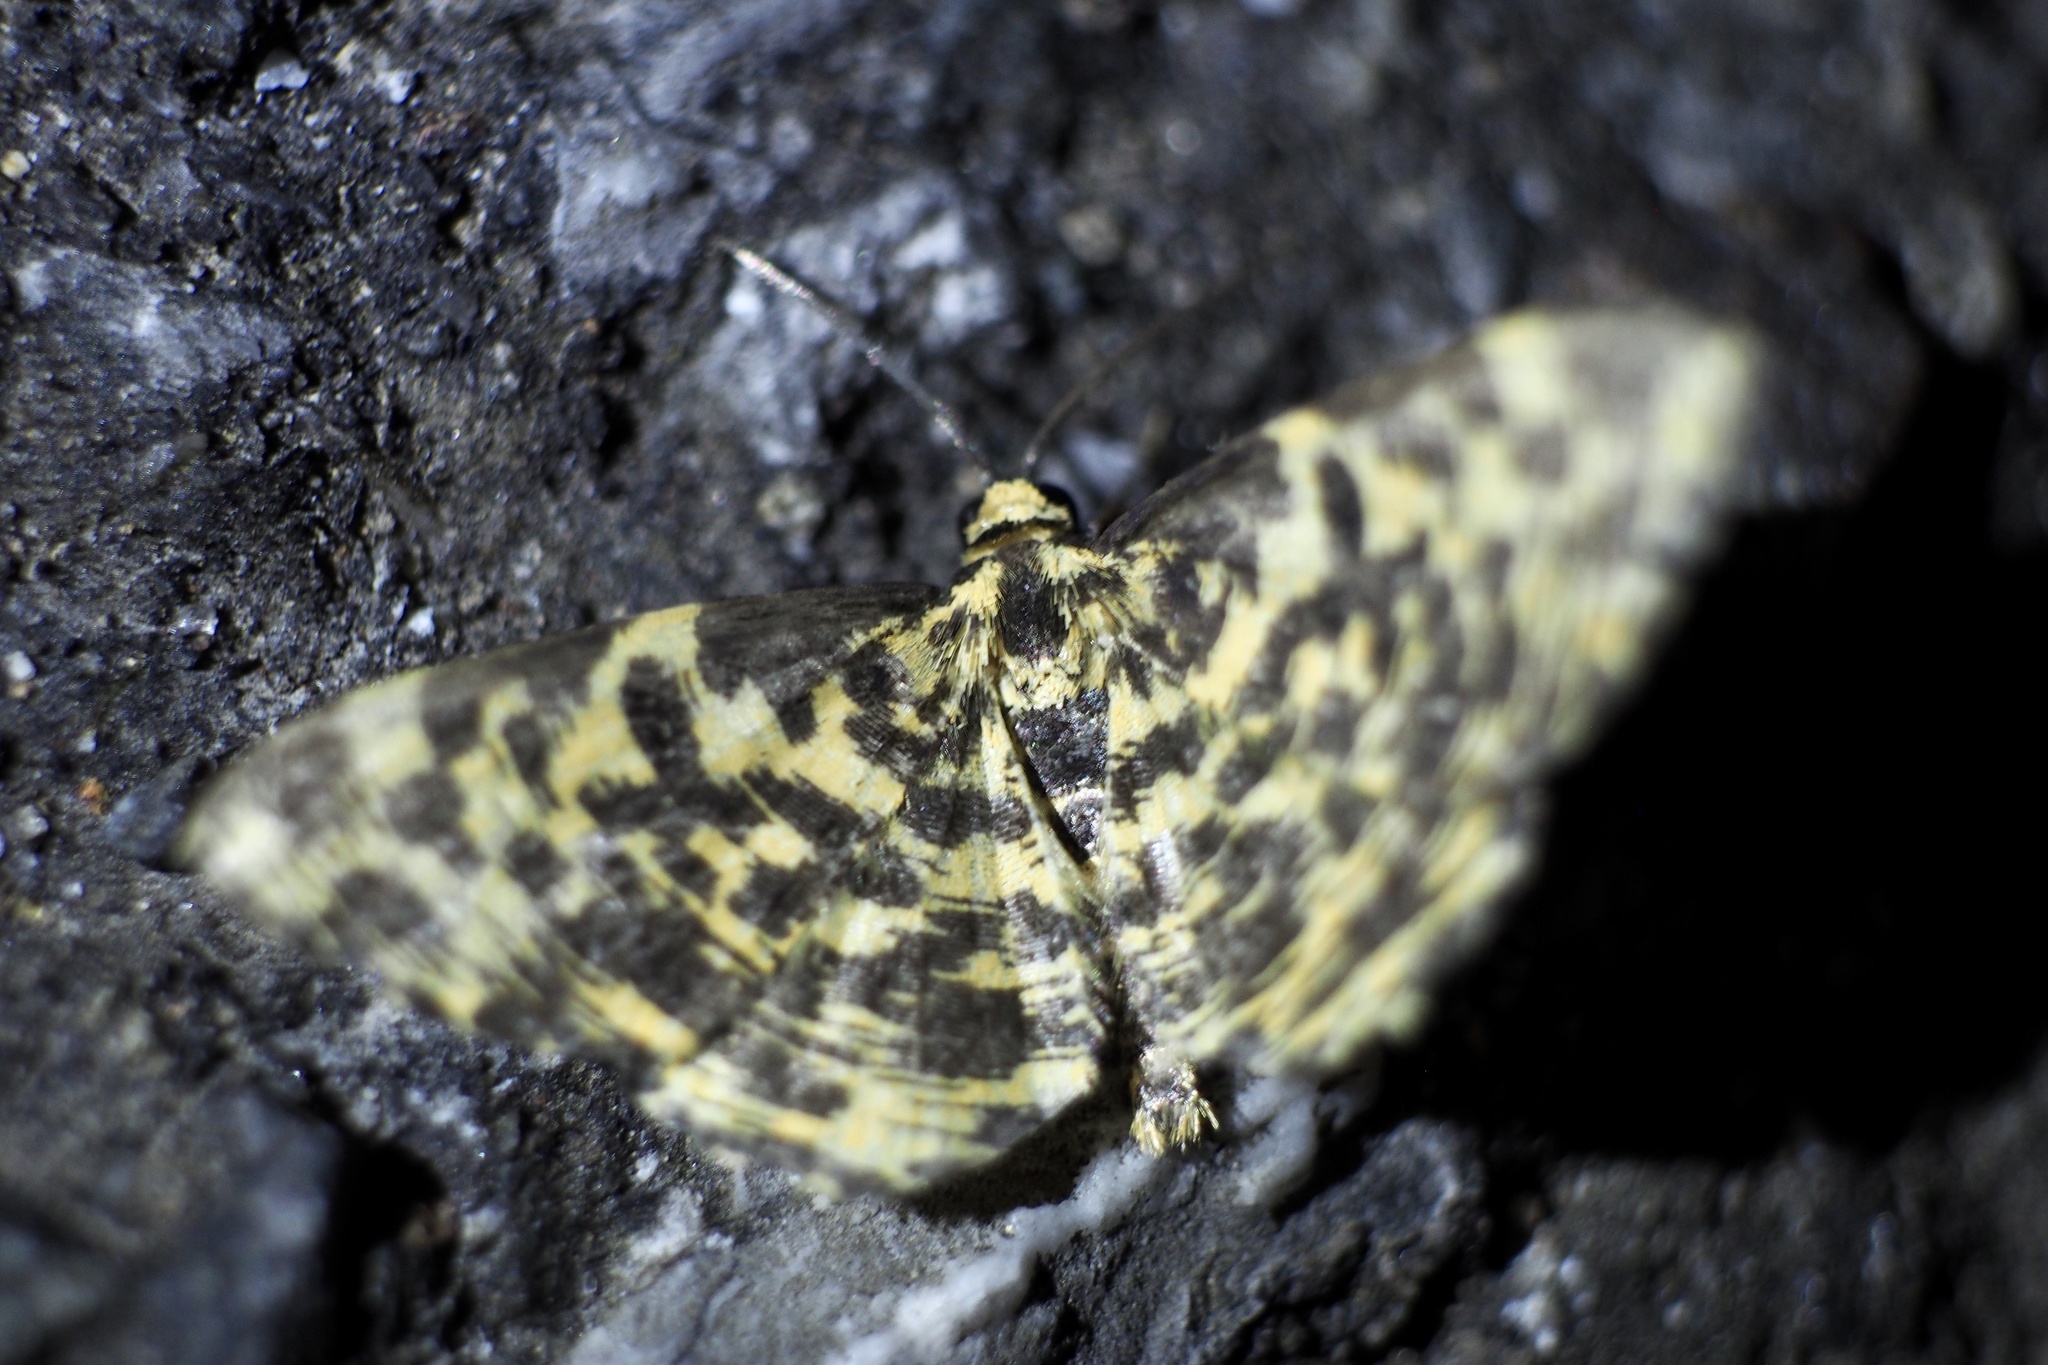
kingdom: Animalia
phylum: Arthropoda
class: Insecta
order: Lepidoptera
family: Geometridae
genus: Monocerotesa
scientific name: Monocerotesa lutearia
